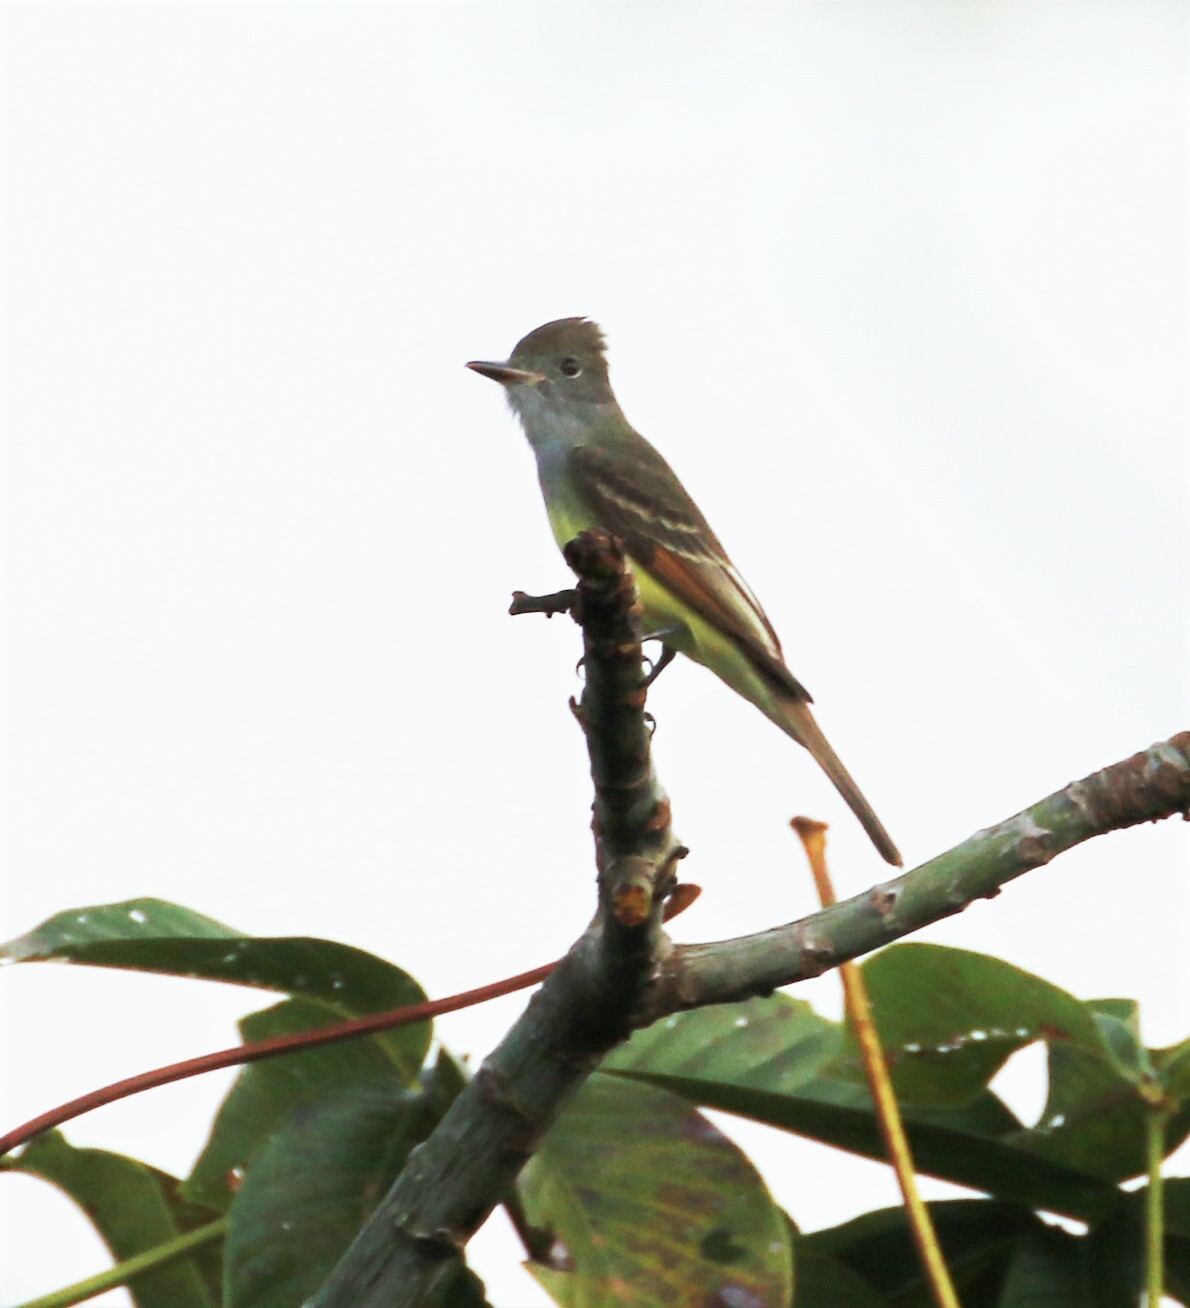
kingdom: Animalia
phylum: Chordata
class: Aves
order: Passeriformes
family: Tyrannidae
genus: Myiarchus
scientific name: Myiarchus crinitus
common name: Great crested flycatcher
